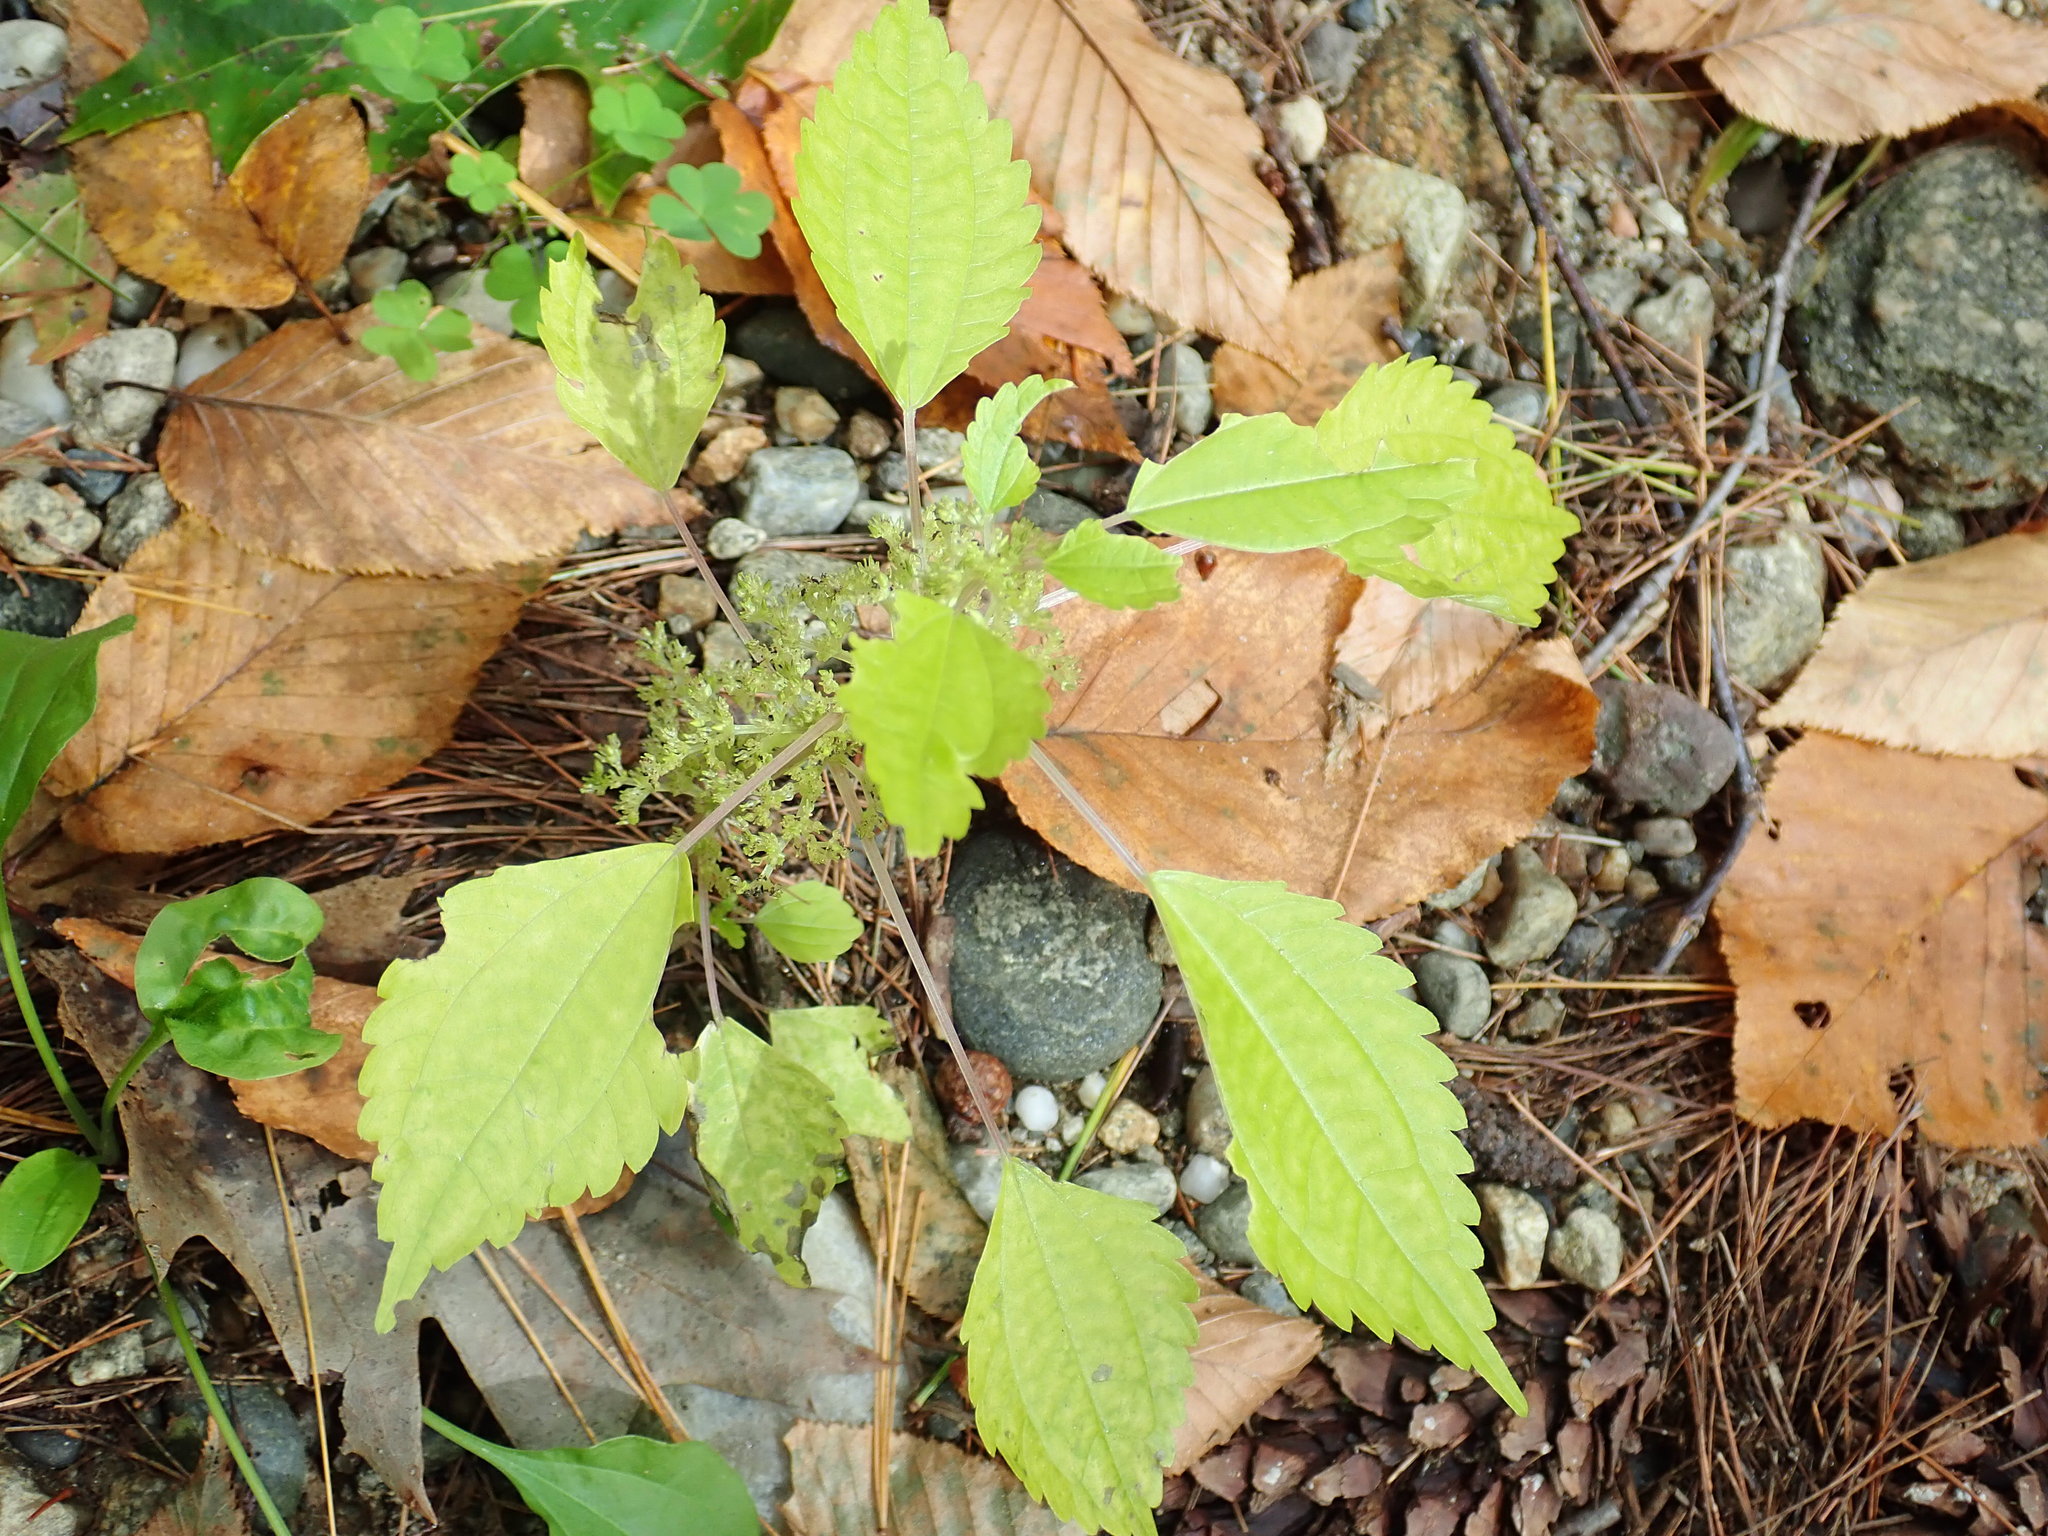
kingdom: Plantae
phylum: Tracheophyta
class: Magnoliopsida
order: Rosales
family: Urticaceae
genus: Pilea
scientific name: Pilea pumila
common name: Clearweed
